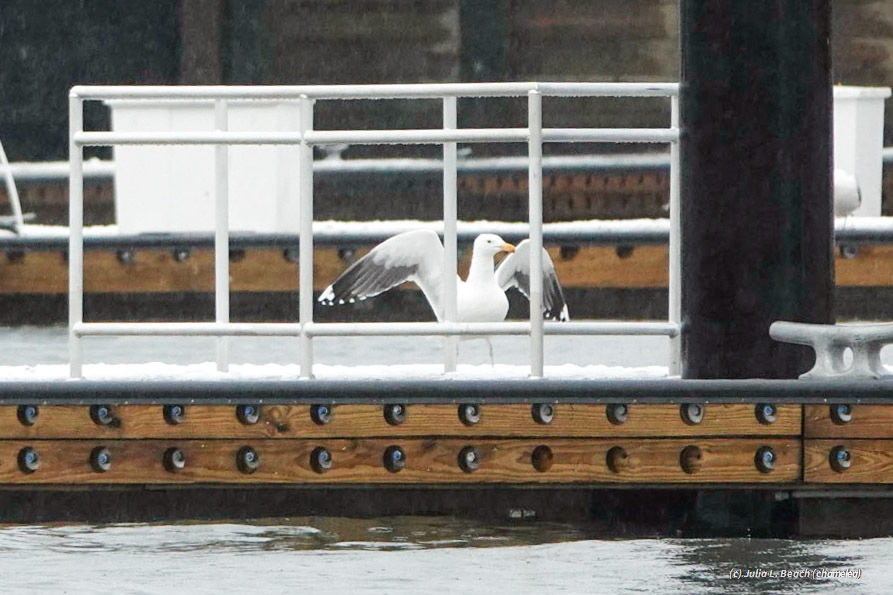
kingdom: Animalia
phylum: Chordata
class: Aves
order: Charadriiformes
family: Laridae
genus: Larus
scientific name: Larus marinus
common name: Great black-backed gull
